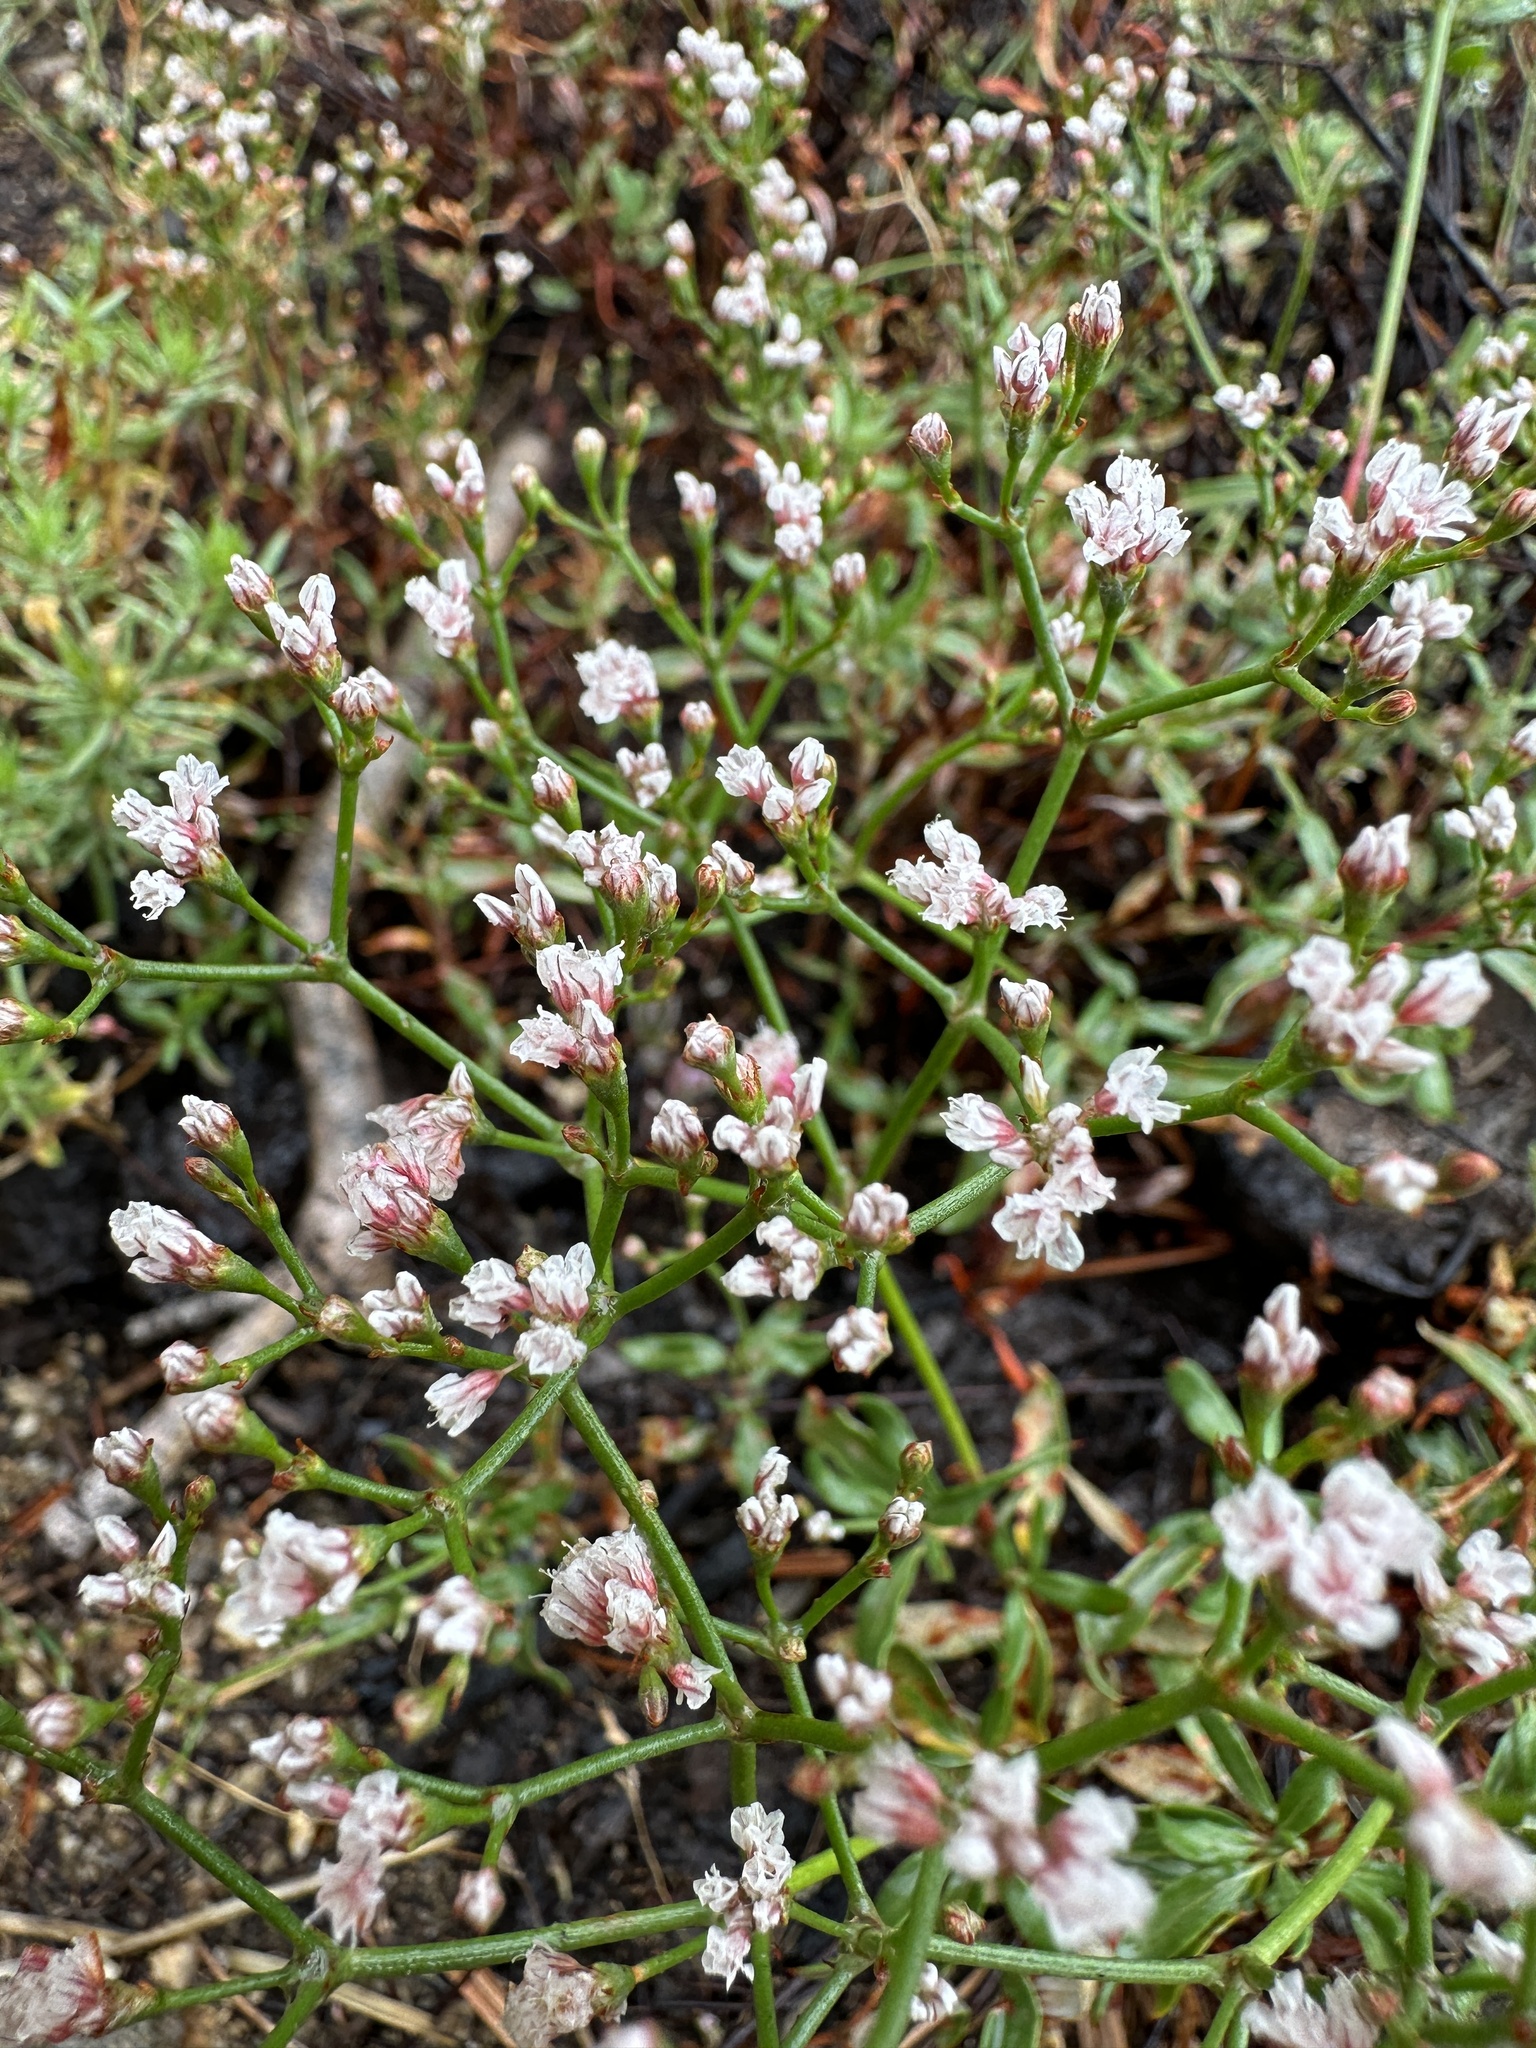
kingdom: Plantae
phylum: Tracheophyta
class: Magnoliopsida
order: Caryophyllales
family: Polygonaceae
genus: Eriogonum
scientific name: Eriogonum microtheca
